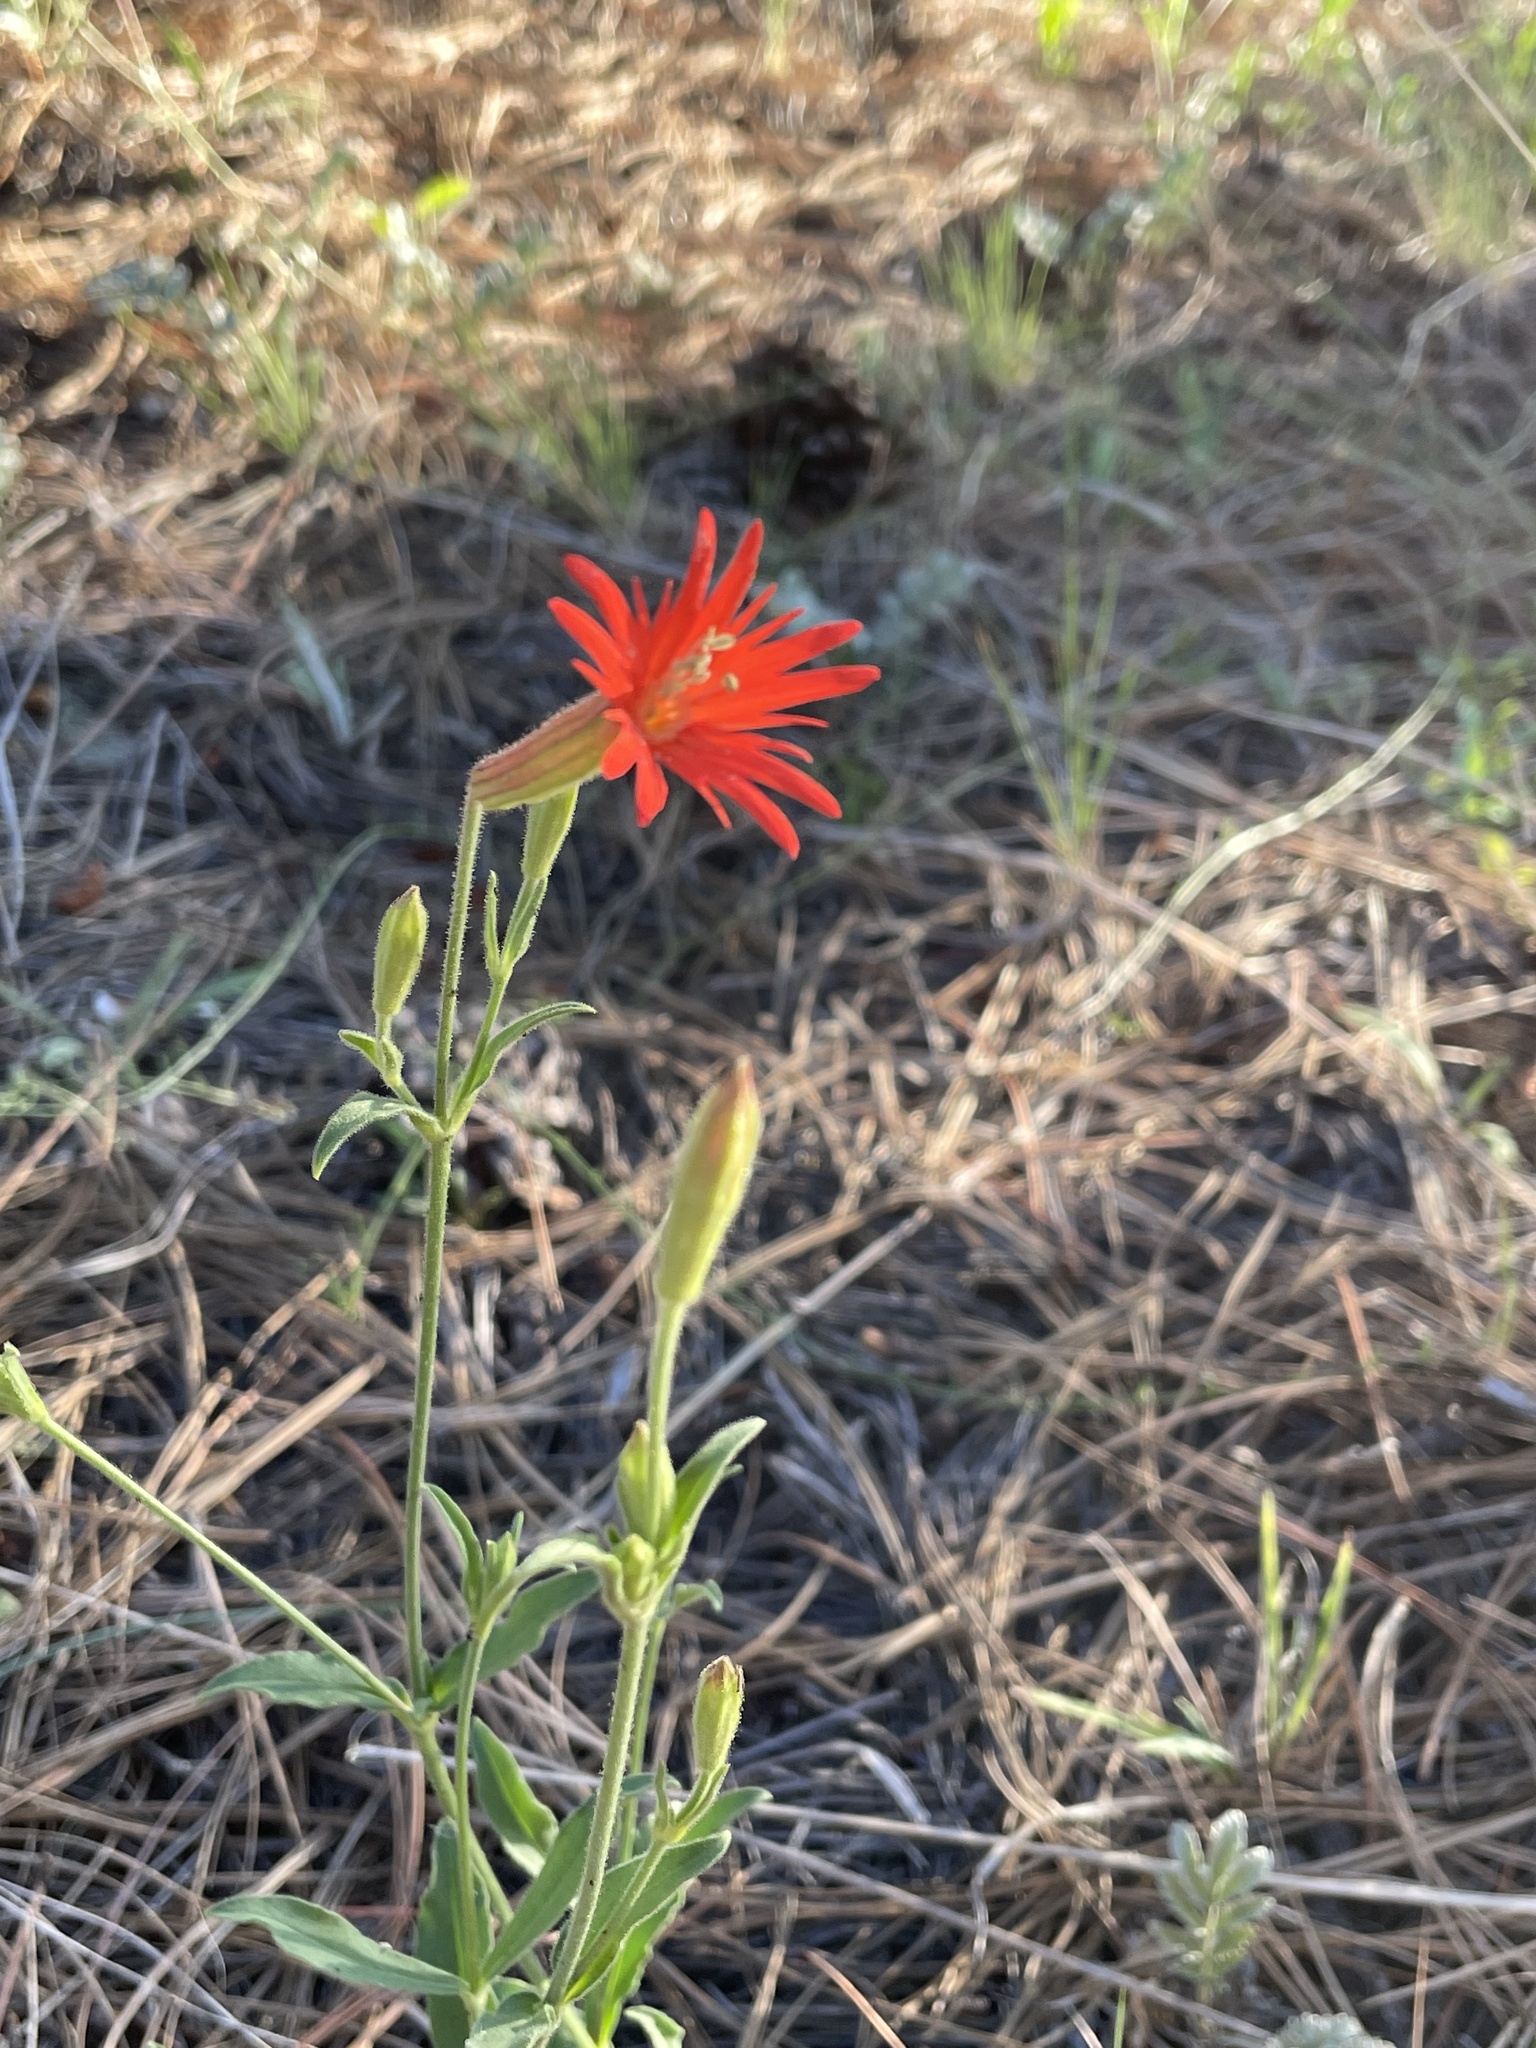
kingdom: Plantae
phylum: Tracheophyta
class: Magnoliopsida
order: Caryophyllales
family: Caryophyllaceae
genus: Silene
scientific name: Silene laciniata
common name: Indian-pink
